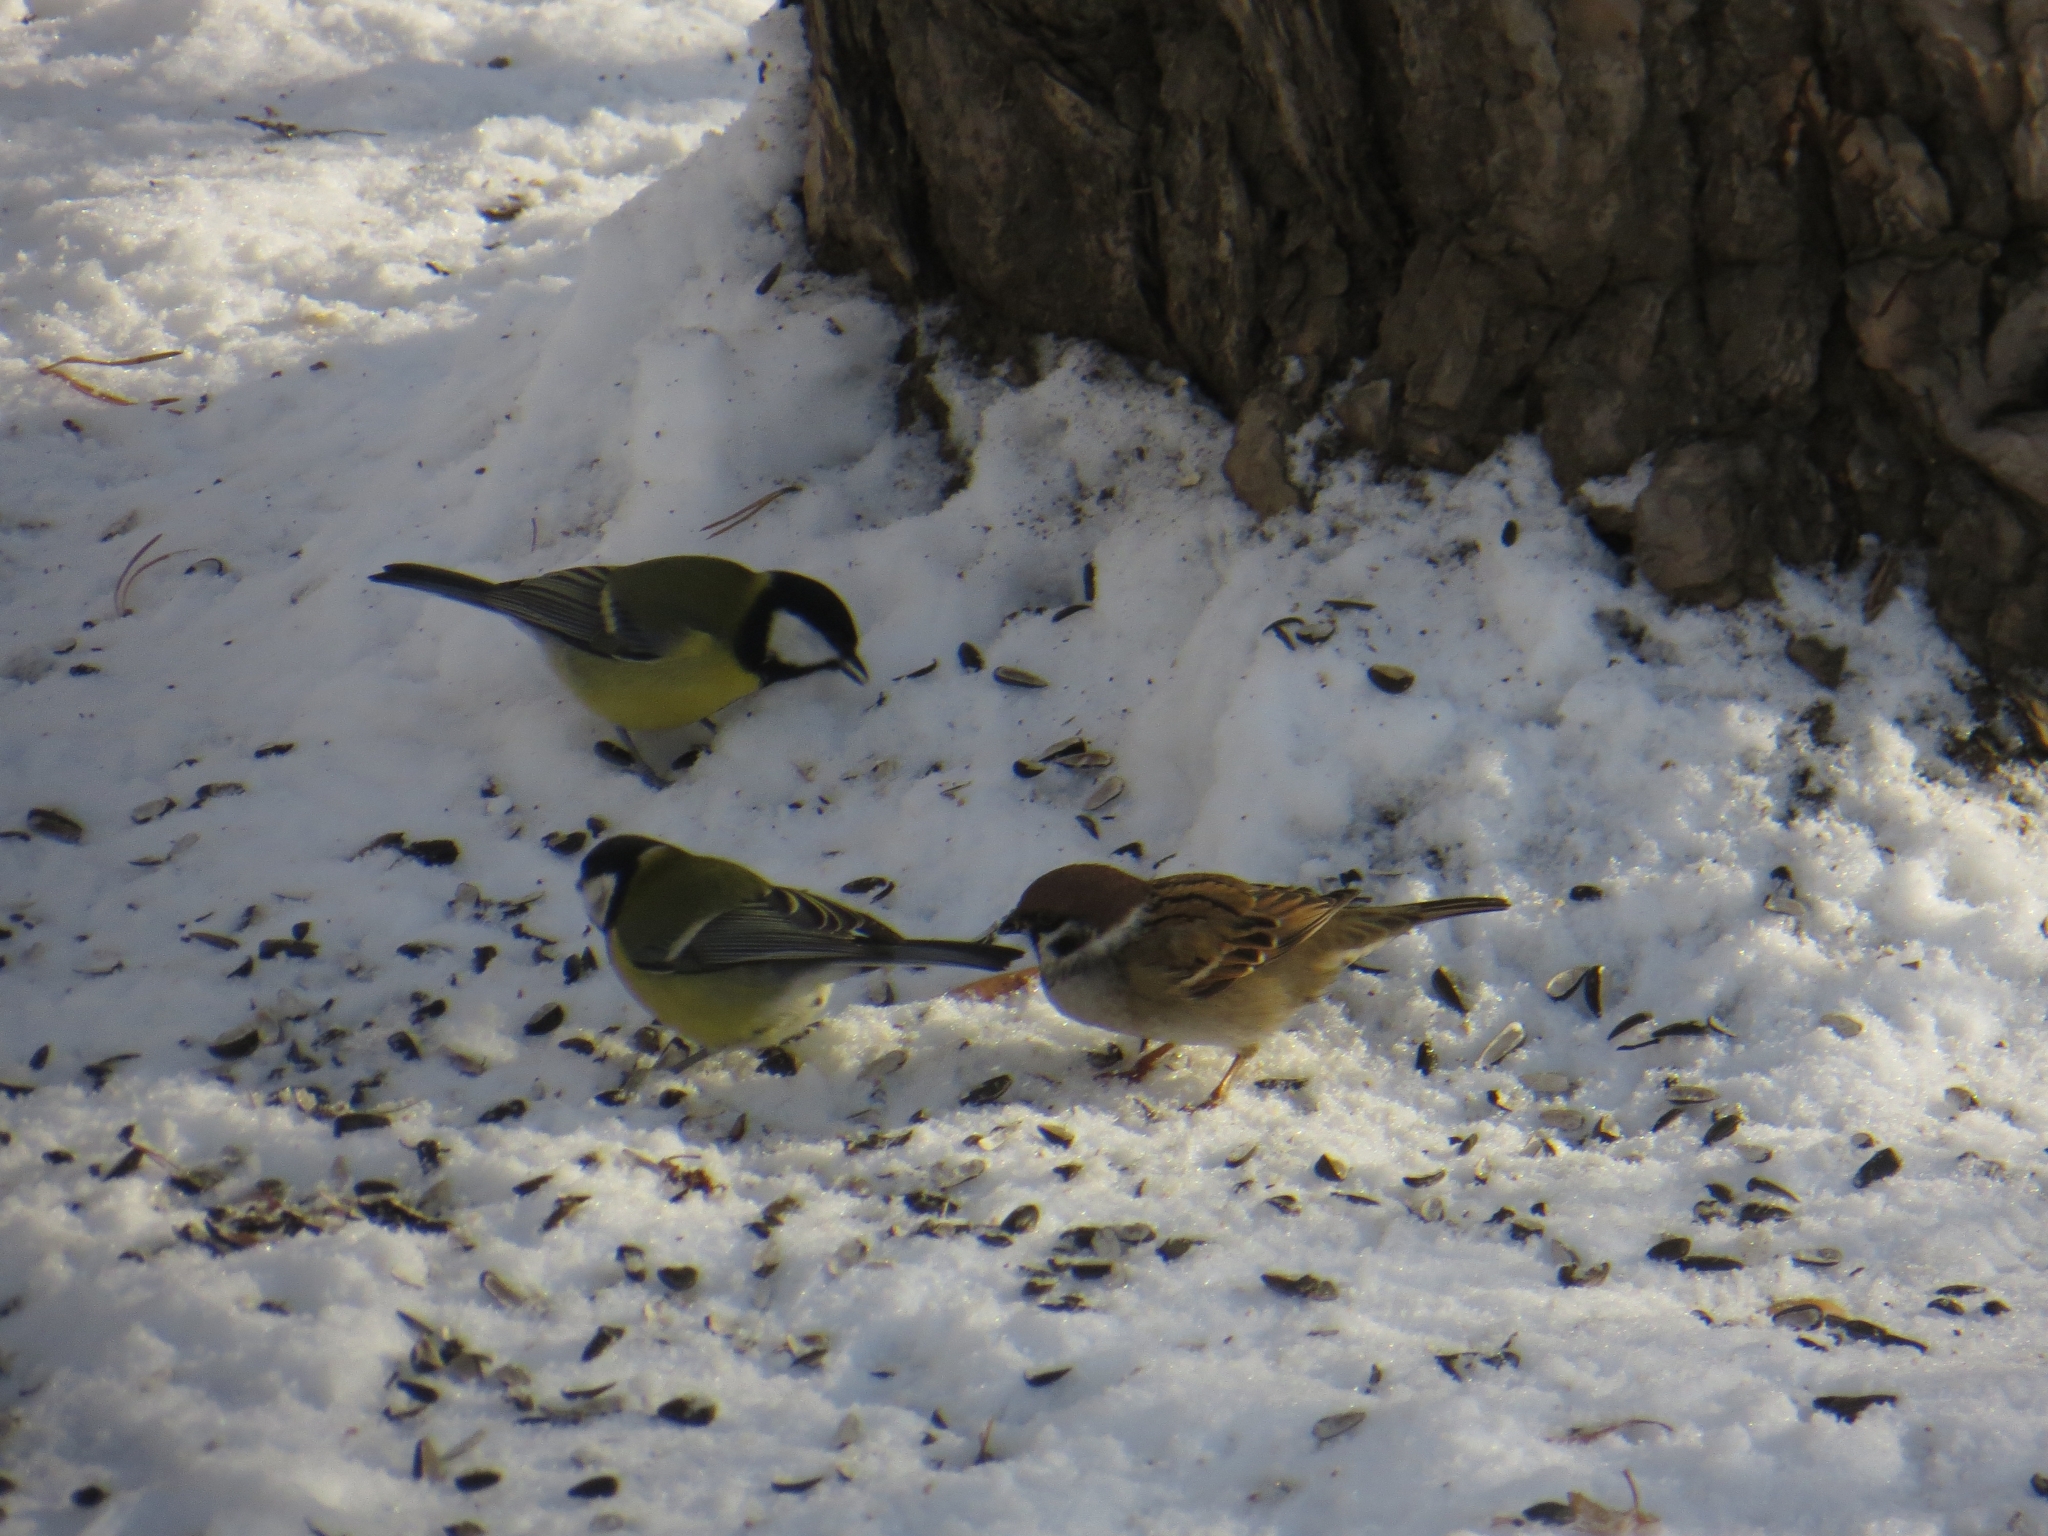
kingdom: Animalia
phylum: Chordata
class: Aves
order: Passeriformes
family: Passeridae
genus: Passer
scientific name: Passer montanus
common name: Eurasian tree sparrow
